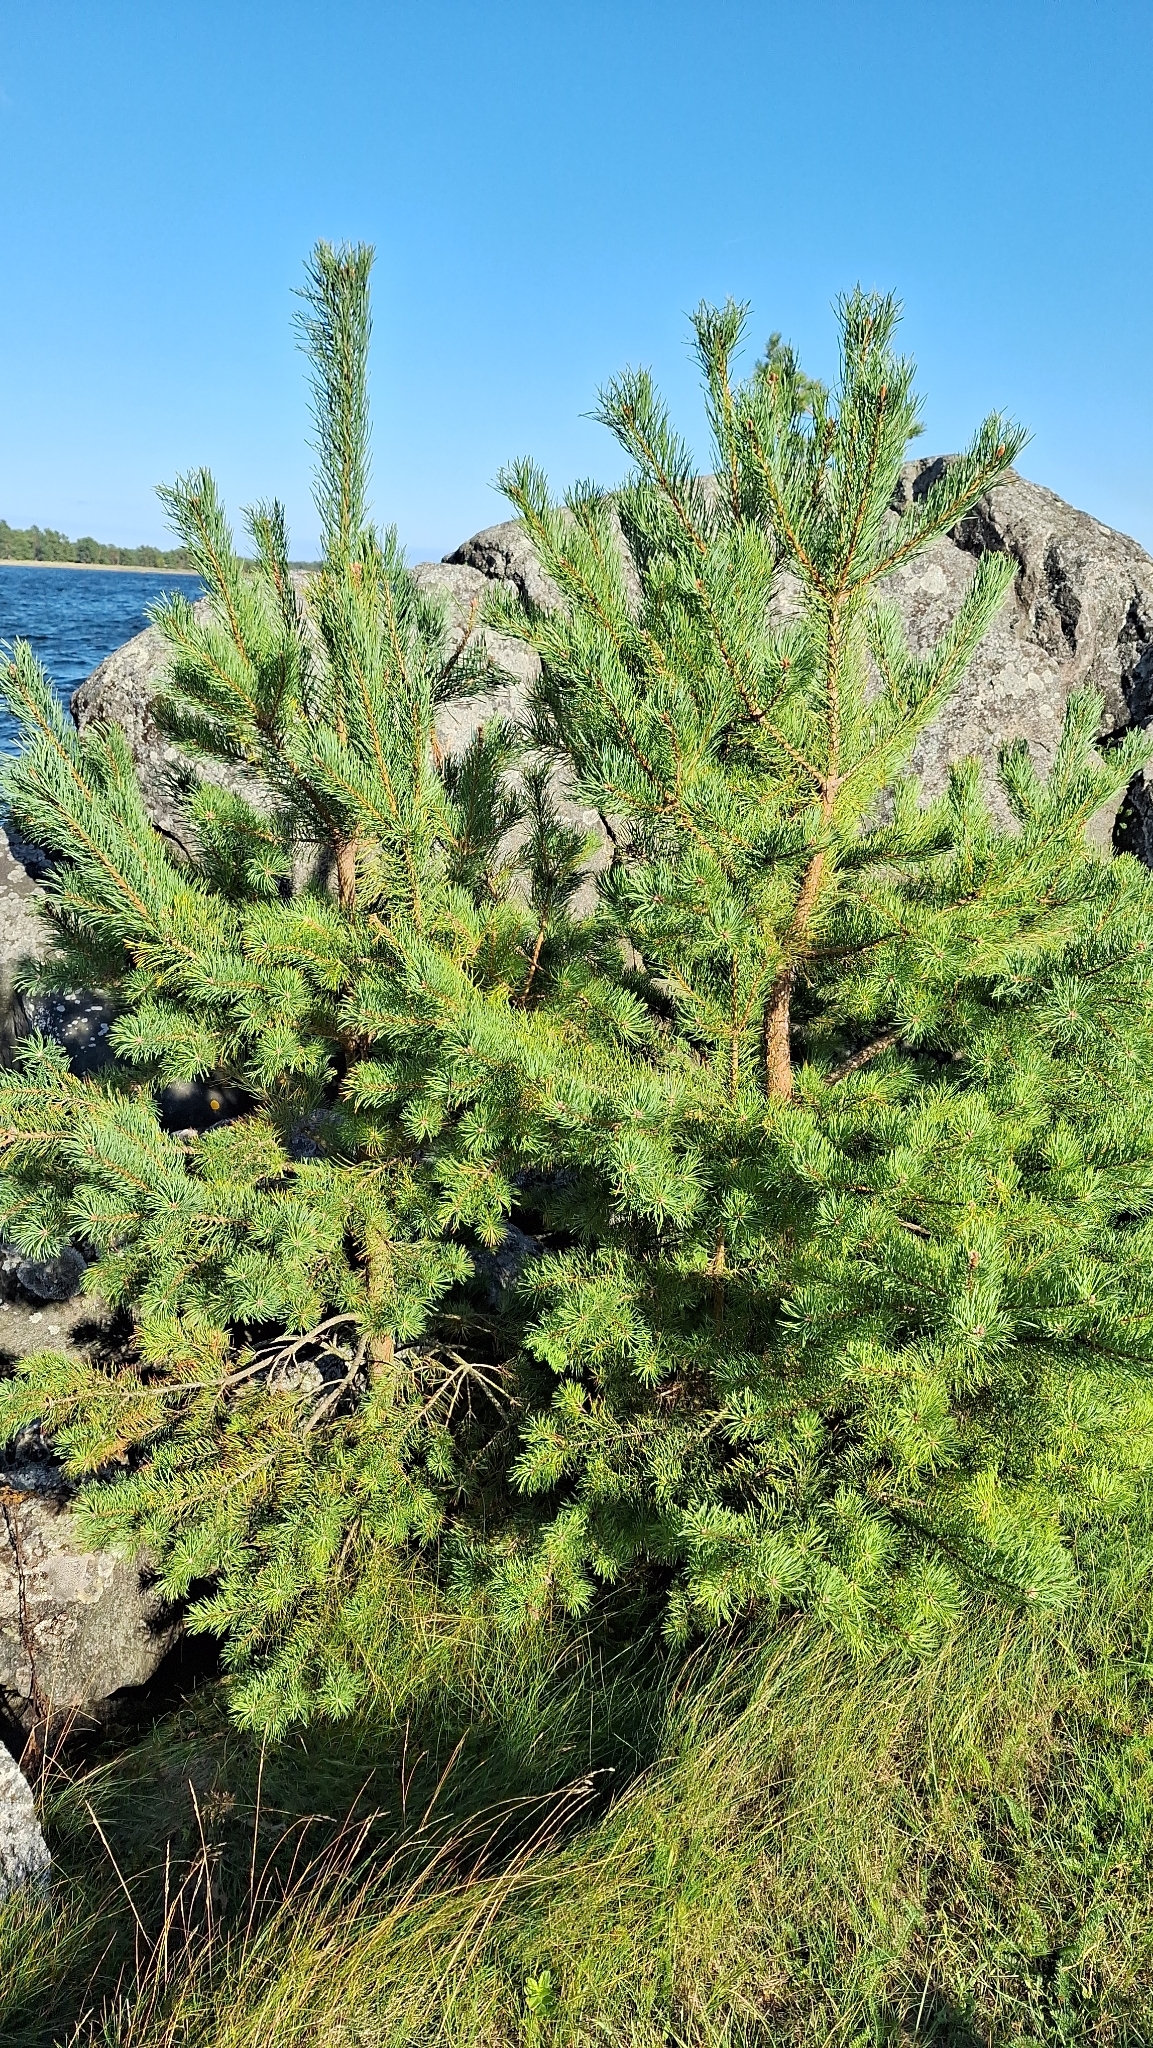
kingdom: Plantae
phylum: Tracheophyta
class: Pinopsida
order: Pinales
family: Pinaceae
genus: Pinus
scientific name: Pinus sylvestris
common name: Scots pine
